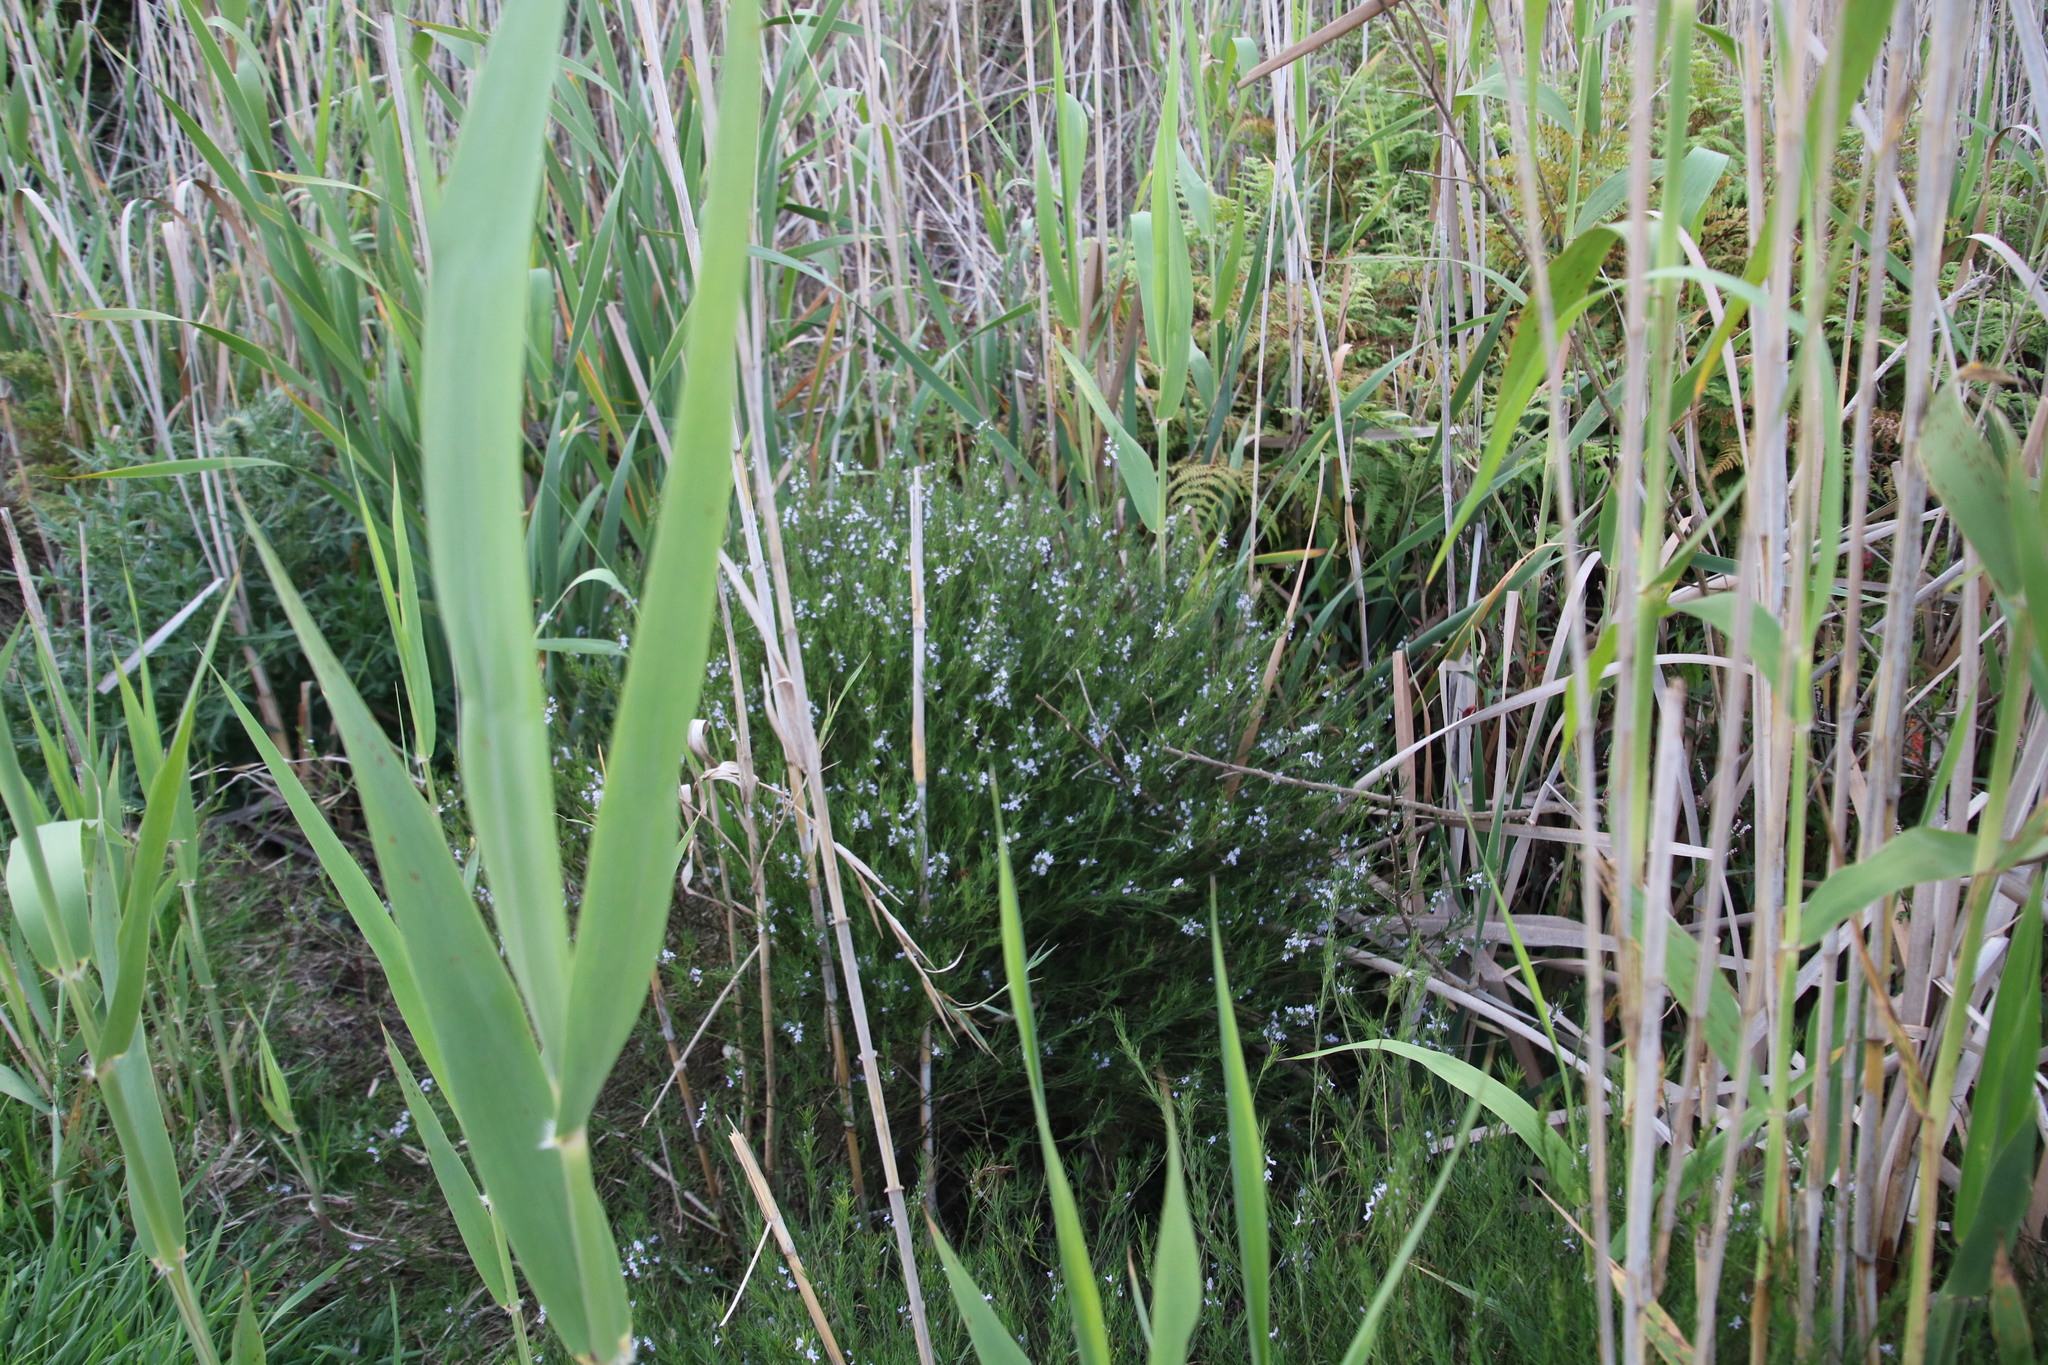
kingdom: Plantae
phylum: Tracheophyta
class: Magnoliopsida
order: Fabales
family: Fabaceae
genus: Psoralea
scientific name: Psoralea fascicularis
